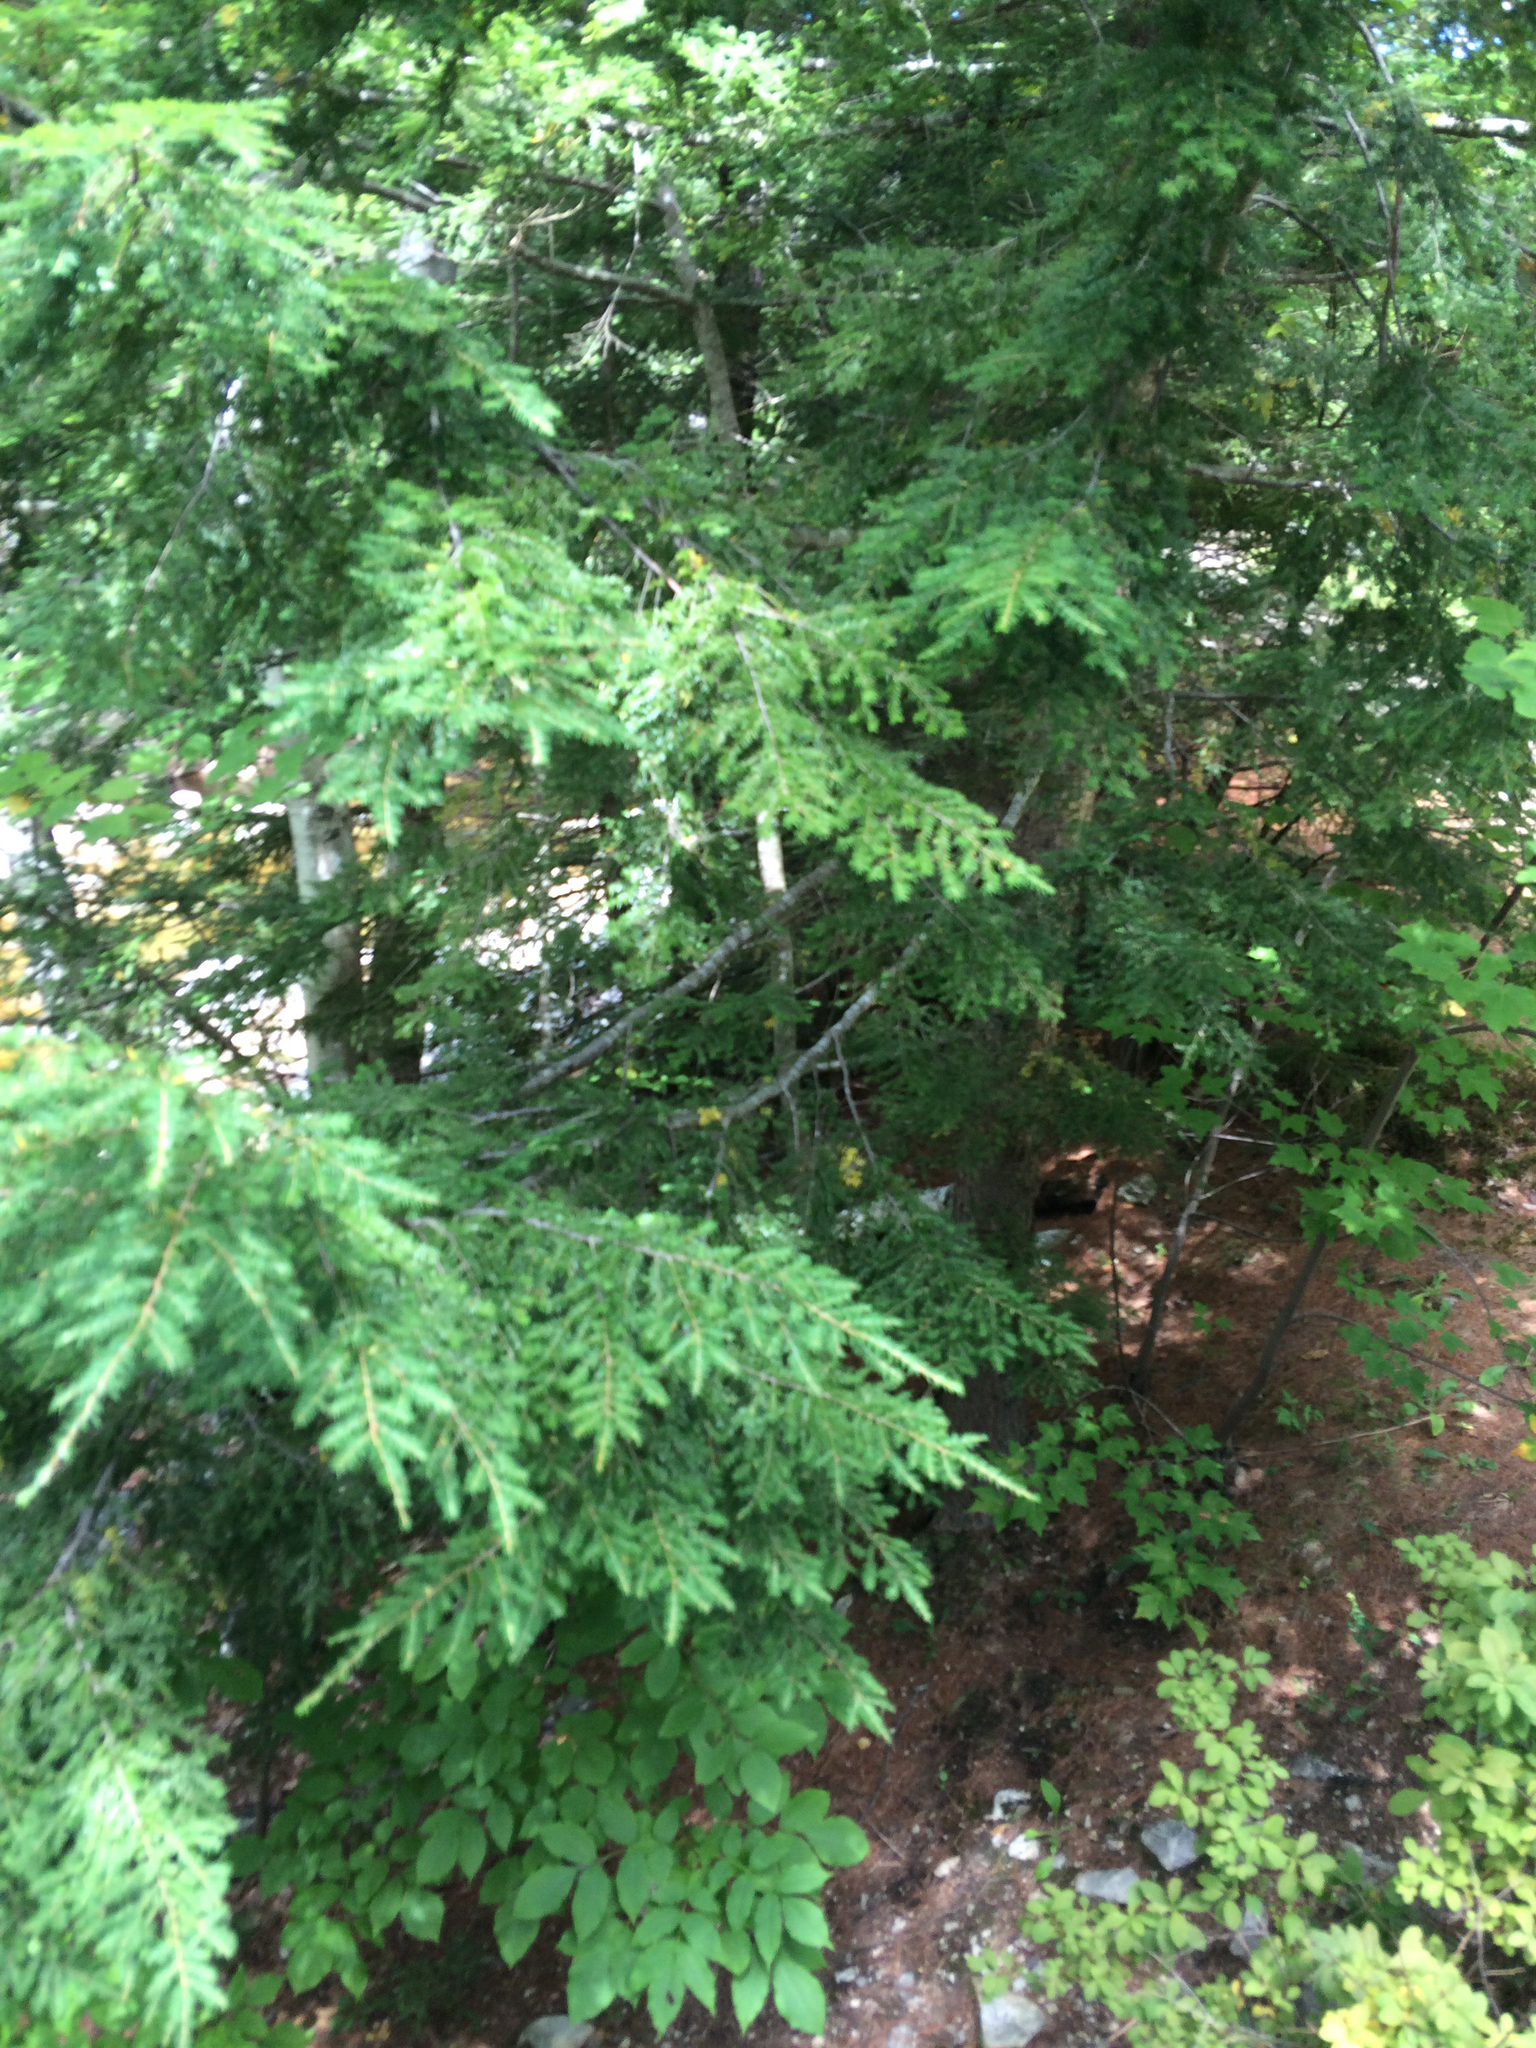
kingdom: Plantae
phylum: Tracheophyta
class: Pinopsida
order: Pinales
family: Pinaceae
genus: Tsuga
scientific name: Tsuga canadensis
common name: Eastern hemlock
